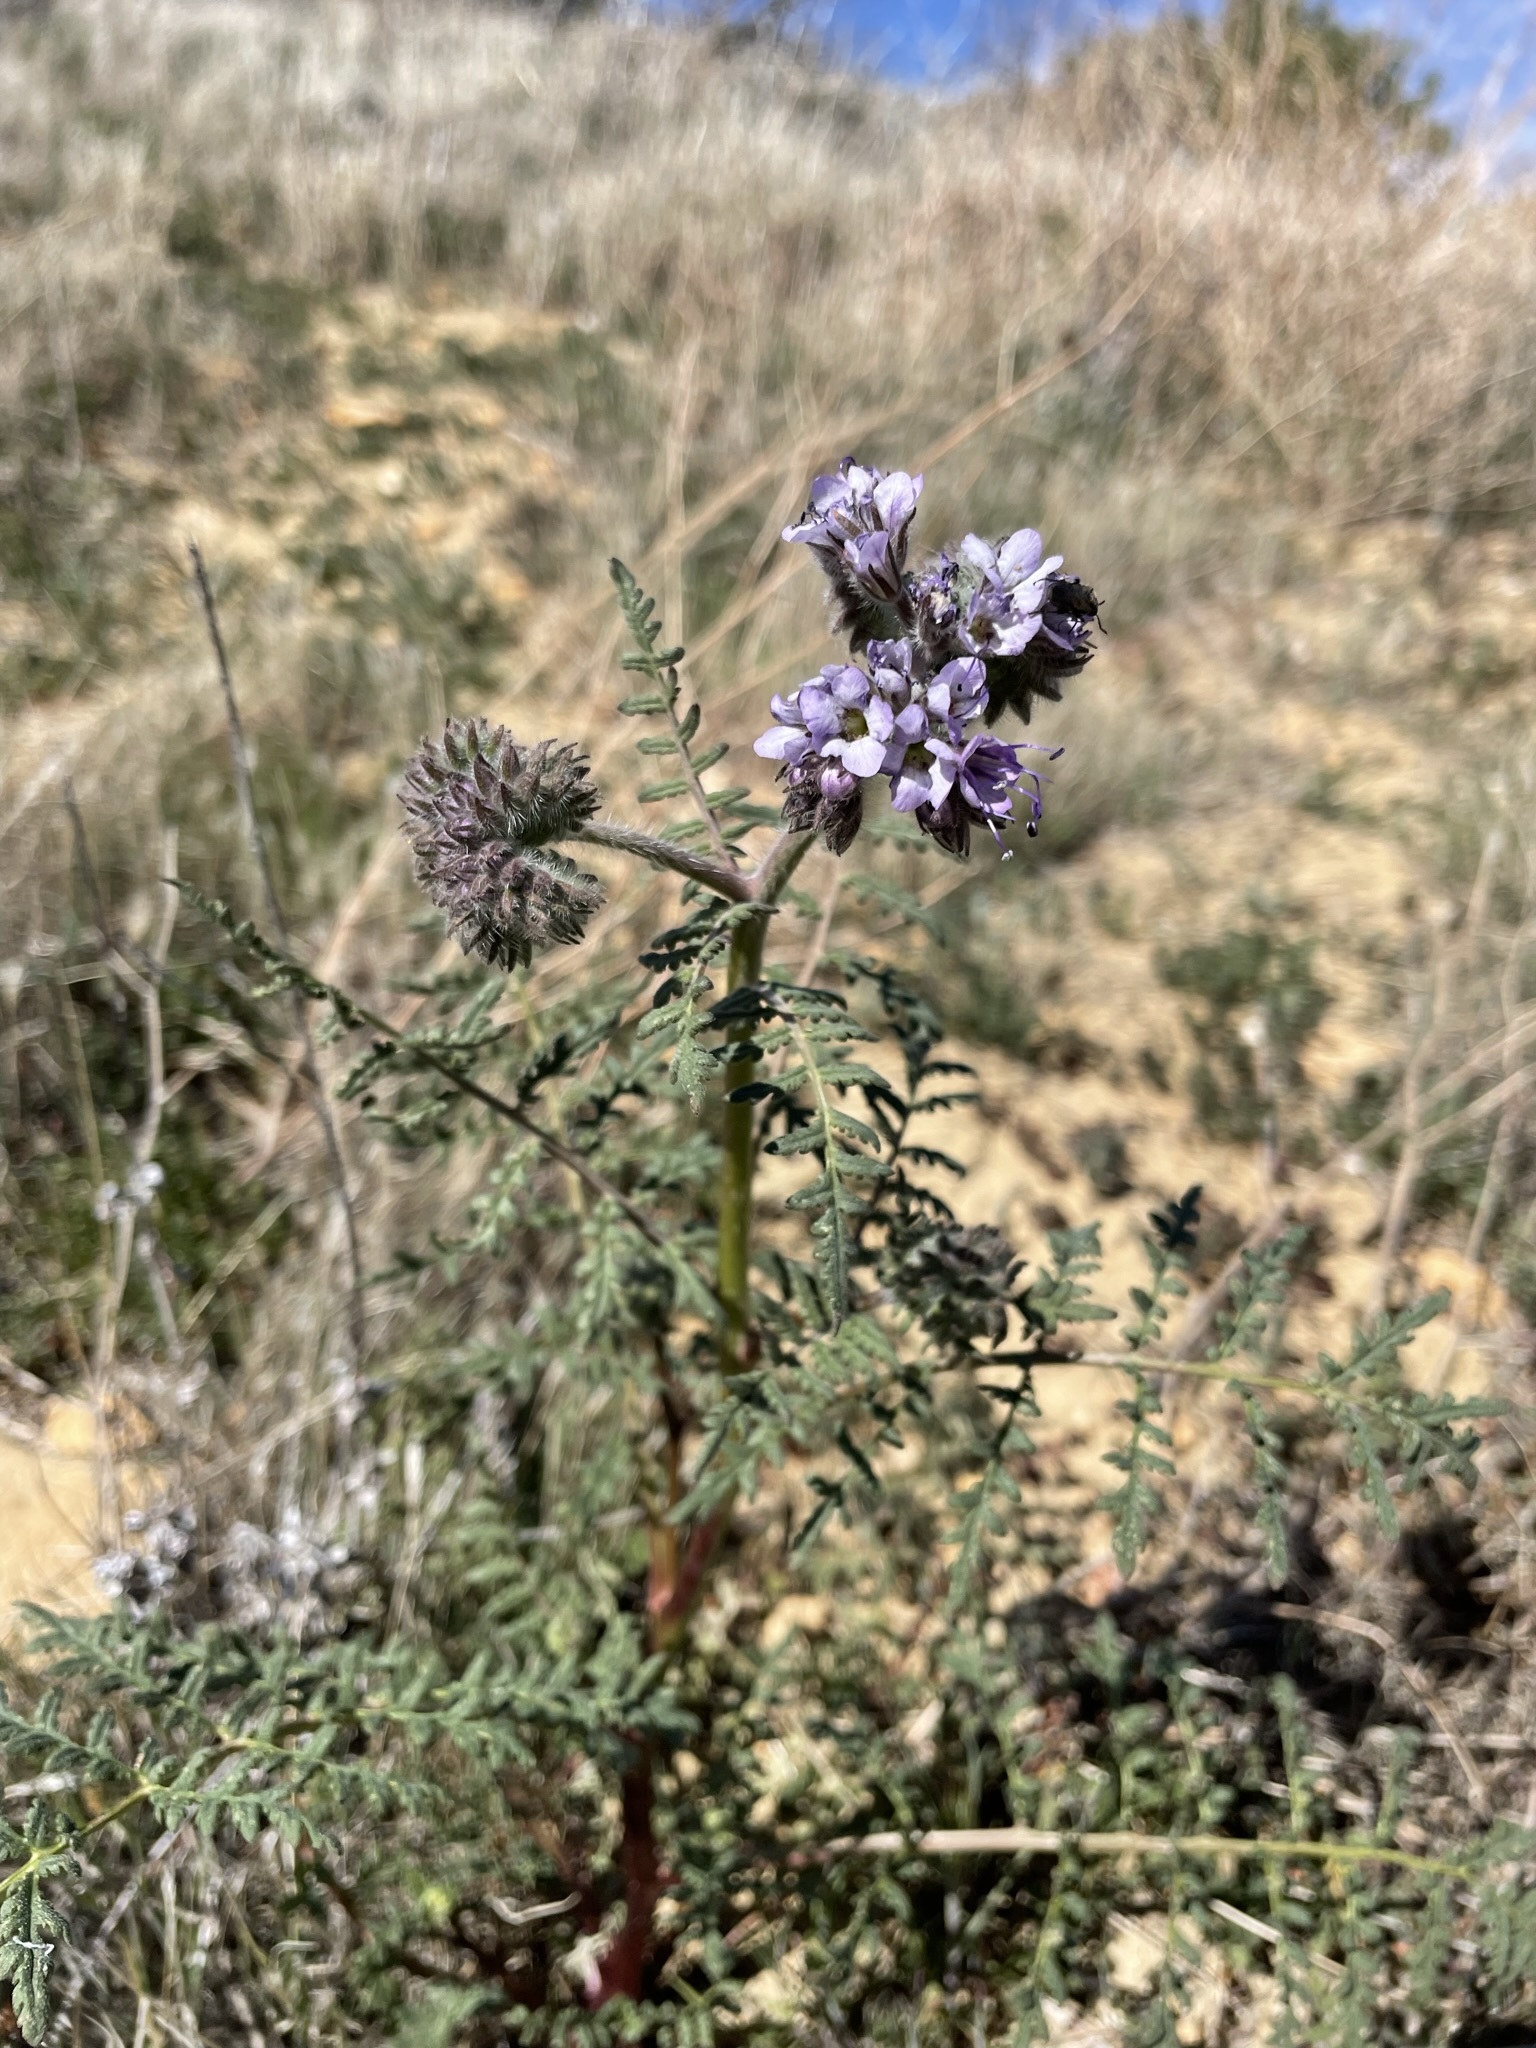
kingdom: Plantae
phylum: Tracheophyta
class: Magnoliopsida
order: Boraginales
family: Hydrophyllaceae
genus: Phacelia
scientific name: Phacelia tanacetifolia
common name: Phacelia
